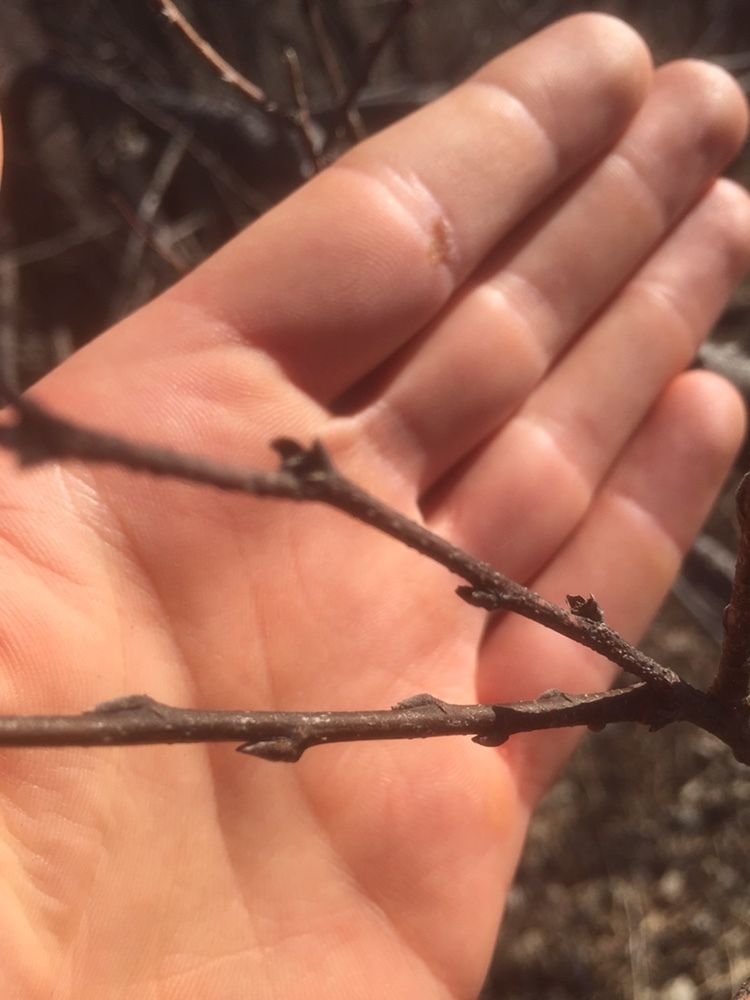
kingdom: Plantae
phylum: Tracheophyta
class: Magnoliopsida
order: Rosales
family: Cannabaceae
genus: Celtis
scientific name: Celtis occidentalis
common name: Common hackberry
